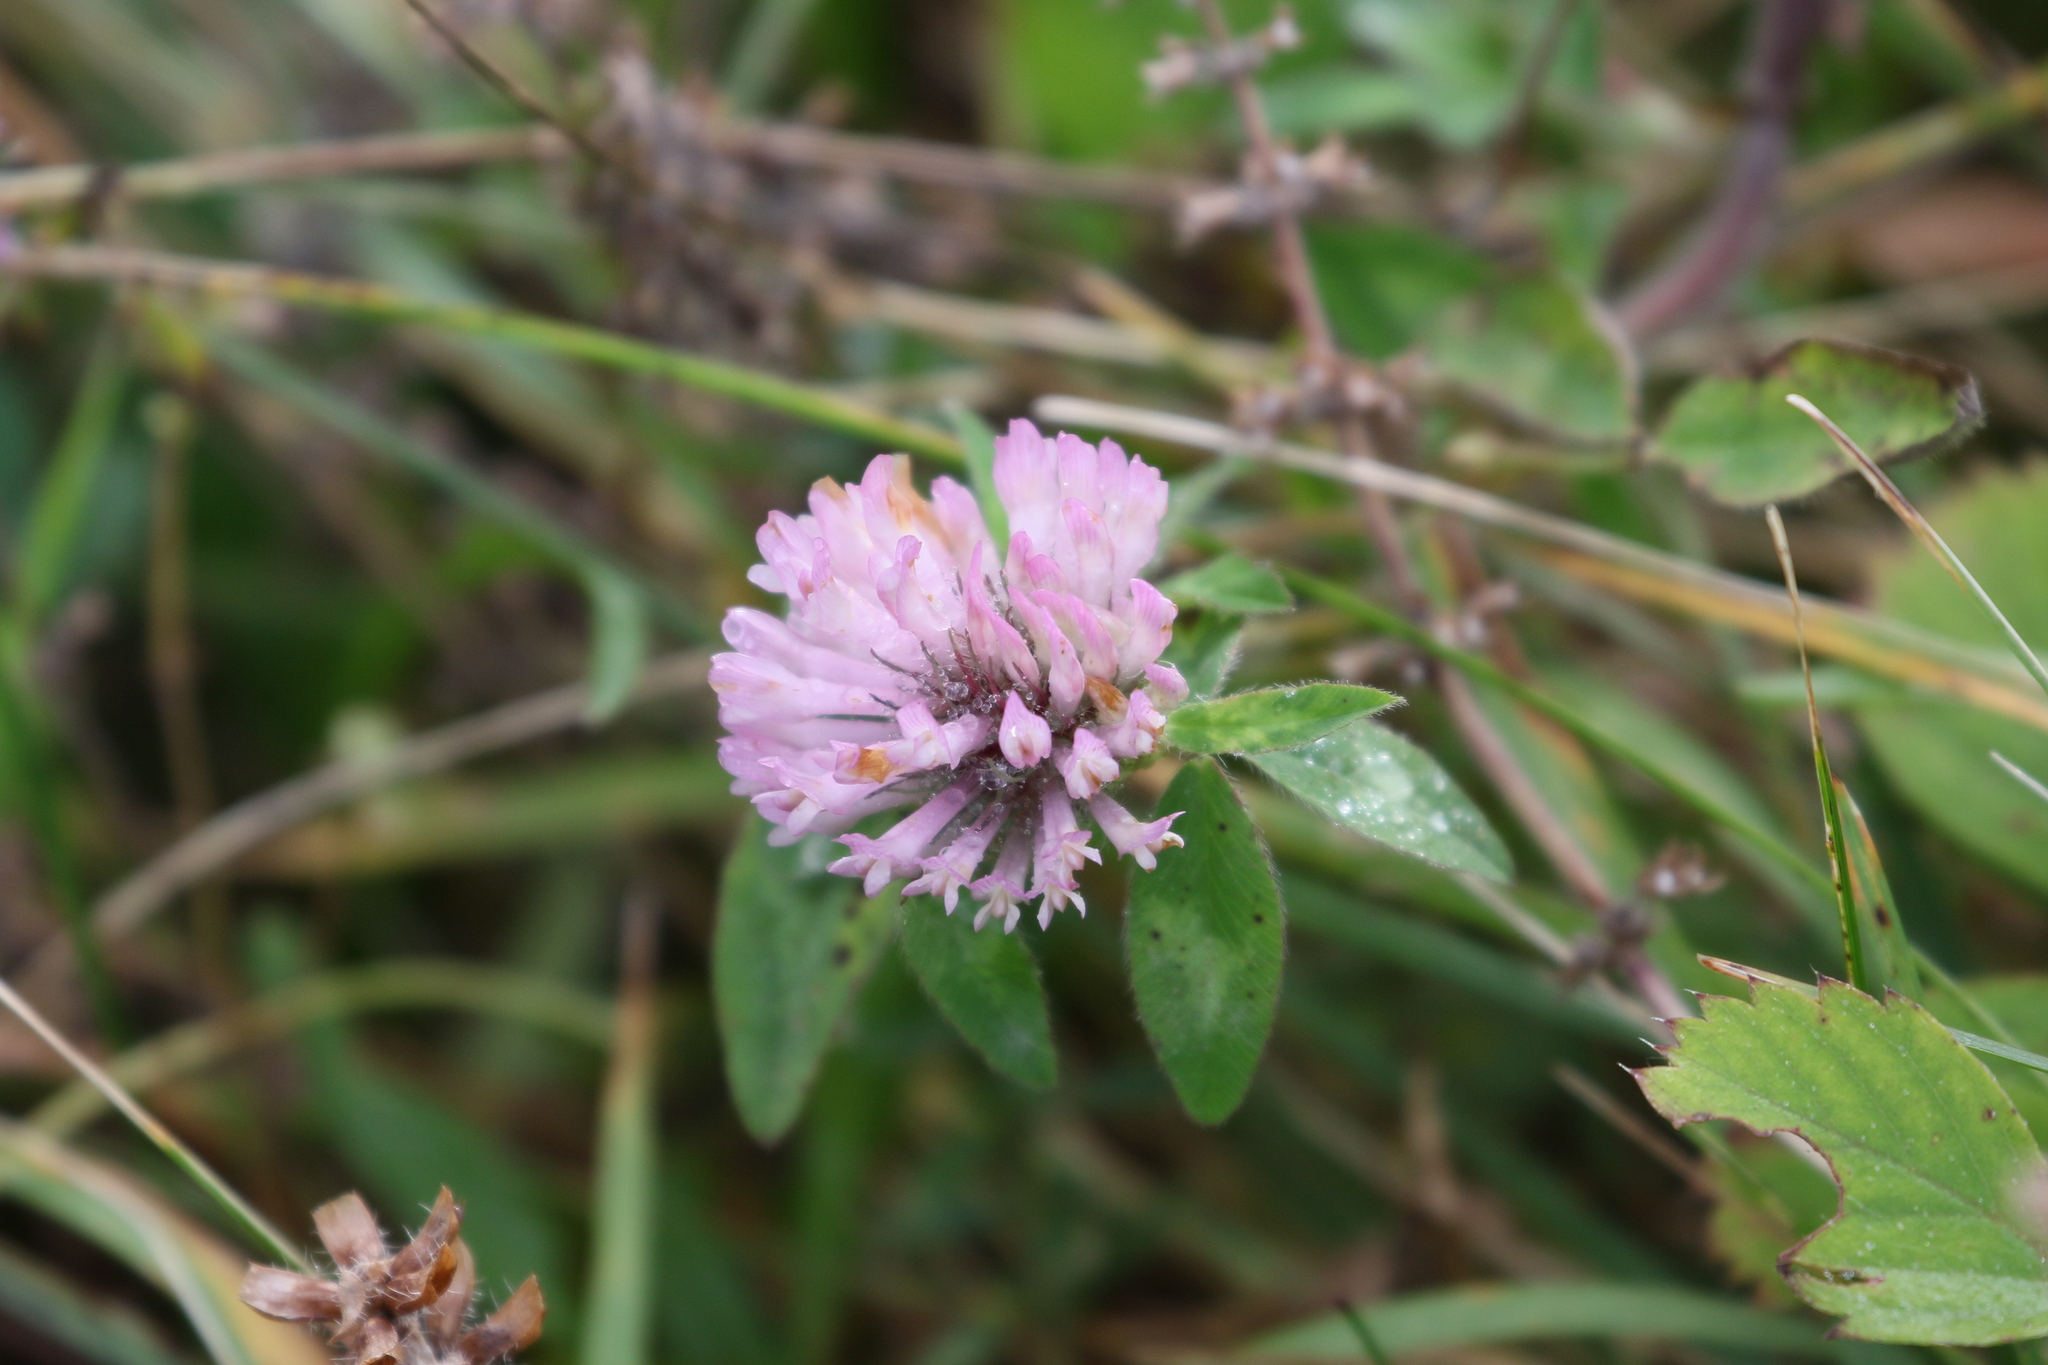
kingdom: Plantae
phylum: Tracheophyta
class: Magnoliopsida
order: Fabales
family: Fabaceae
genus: Trifolium
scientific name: Trifolium pratense
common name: Red clover
